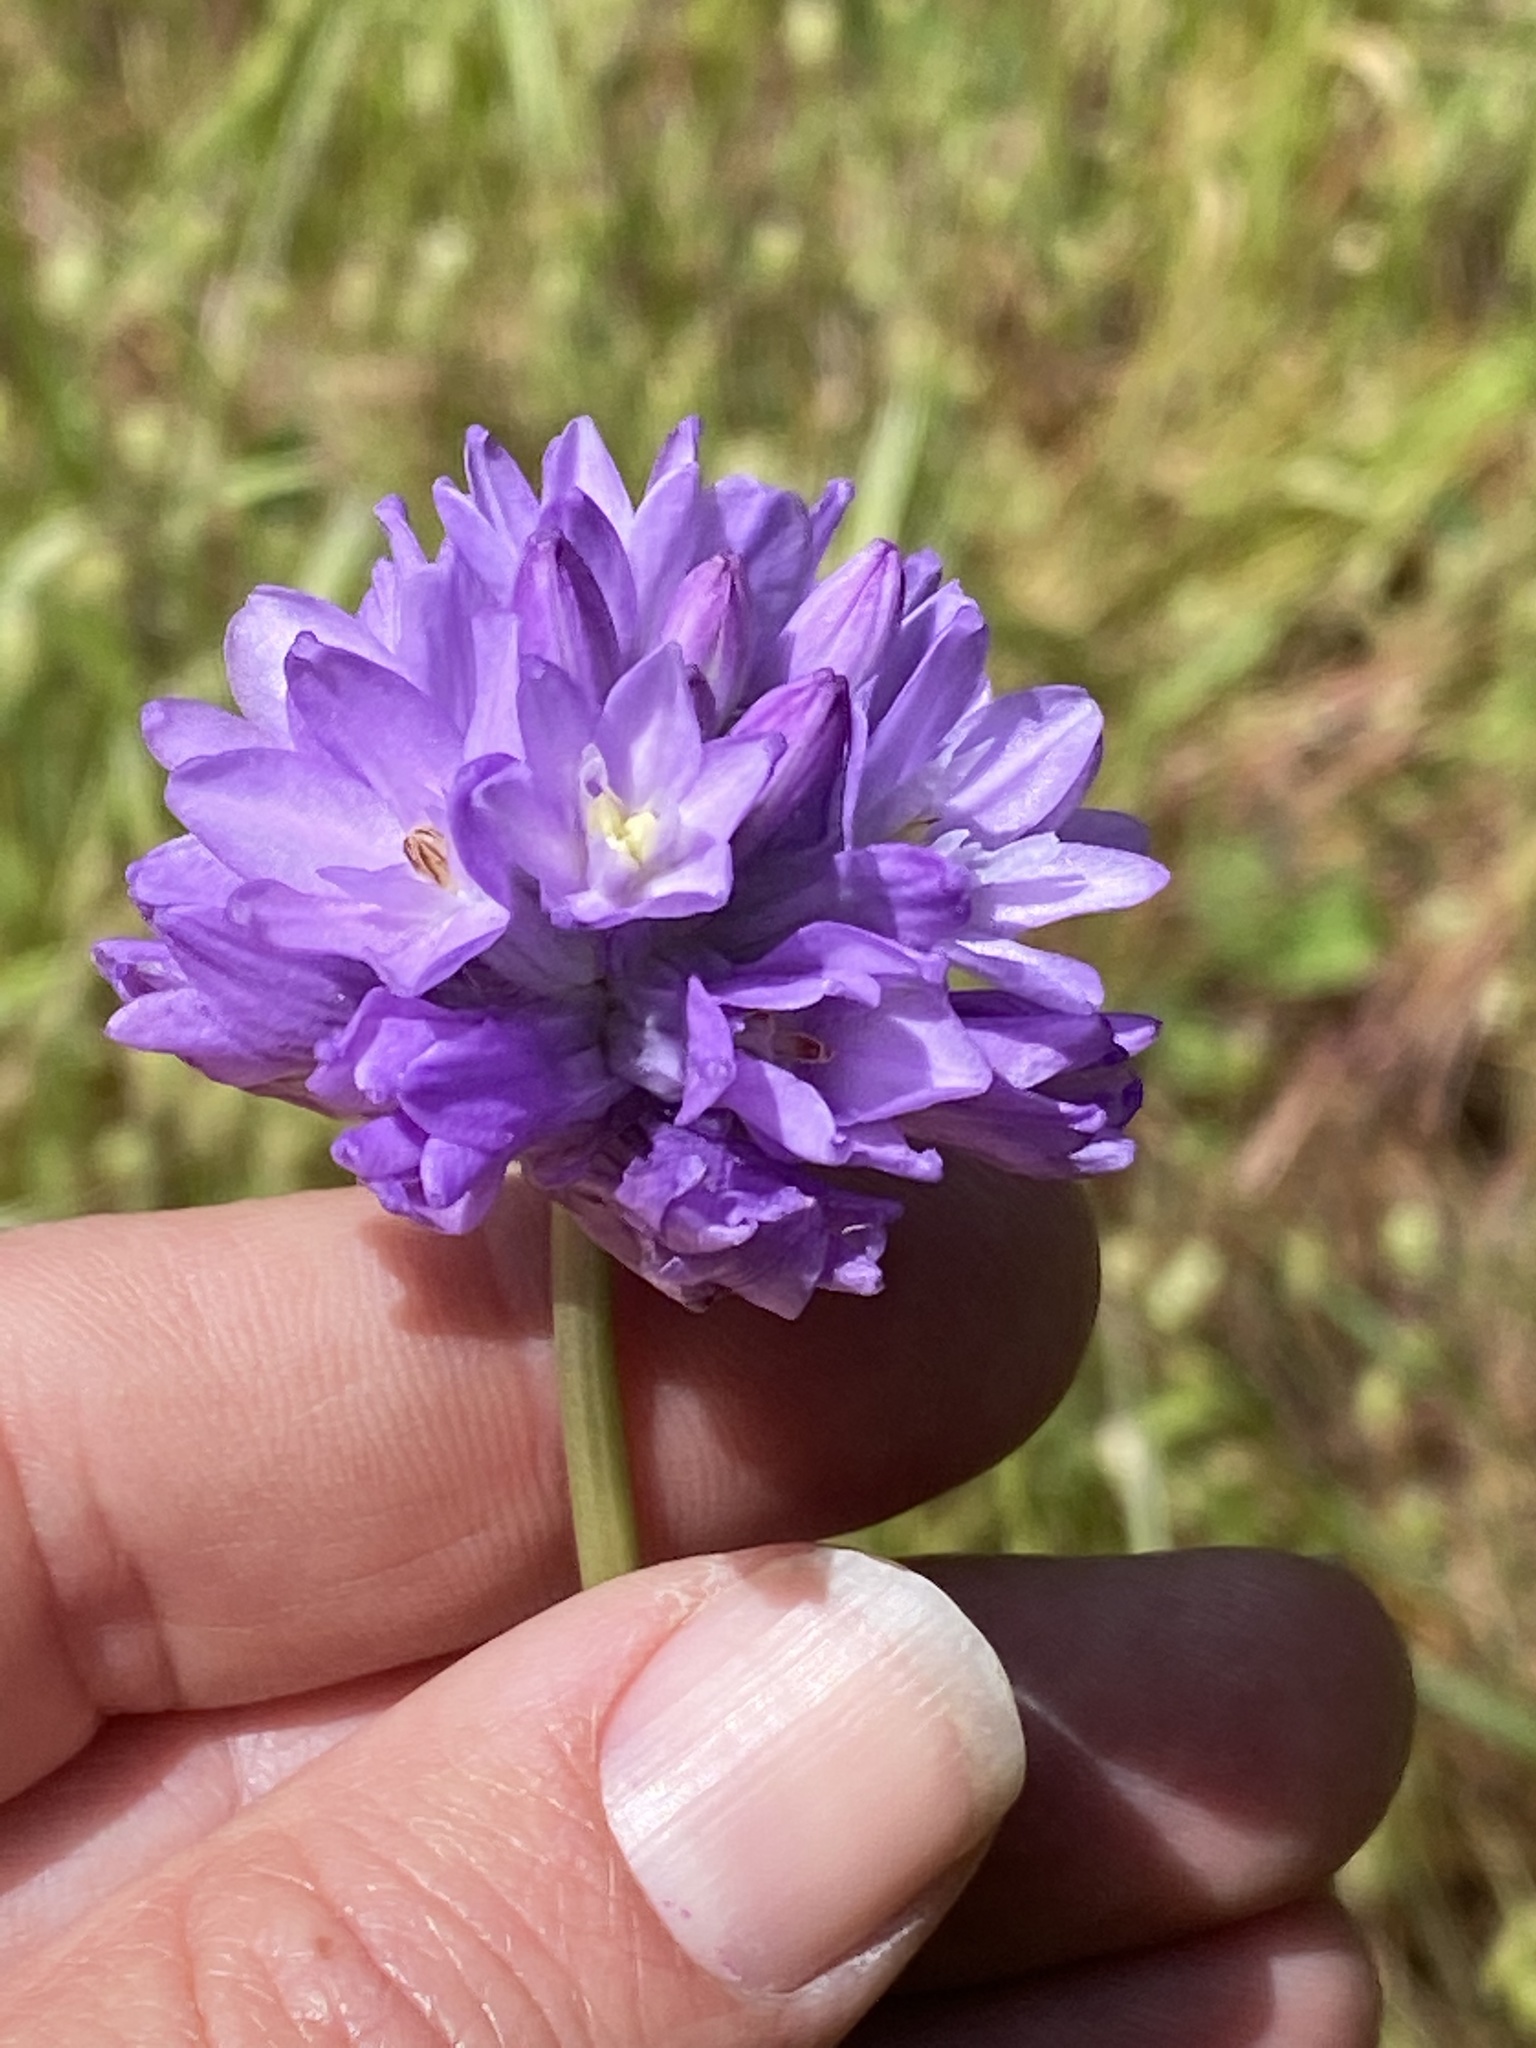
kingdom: Plantae
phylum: Tracheophyta
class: Liliopsida
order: Asparagales
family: Asparagaceae
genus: Dichelostemma
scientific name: Dichelostemma congestum
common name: Fork-tooth ookow
